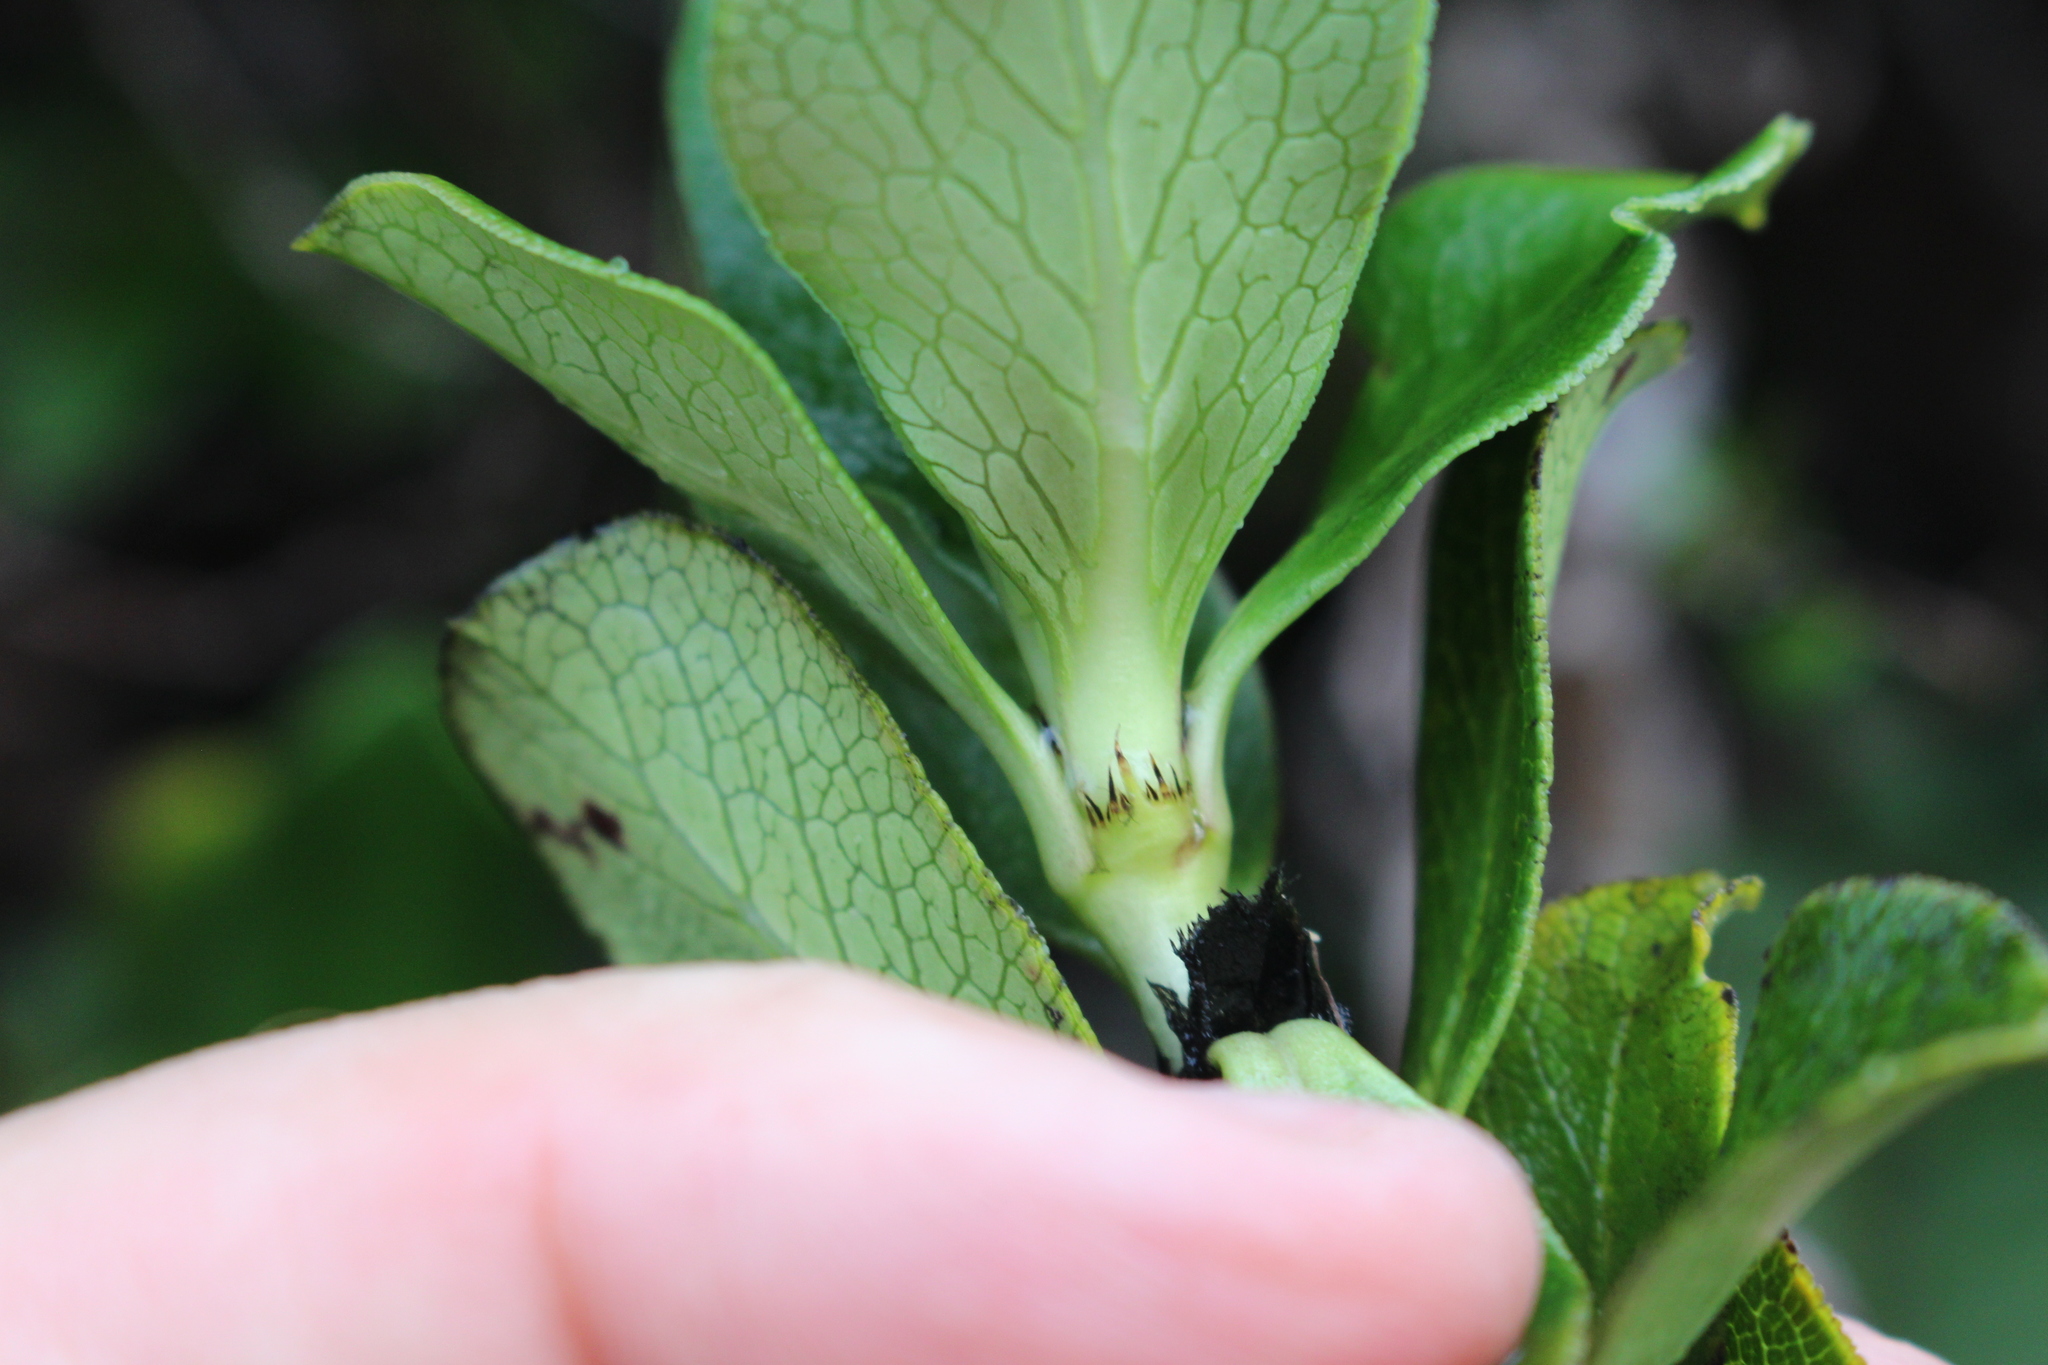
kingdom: Plantae
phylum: Tracheophyta
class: Magnoliopsida
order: Gentianales
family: Rubiaceae
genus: Coprosma
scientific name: Coprosma serrulata
